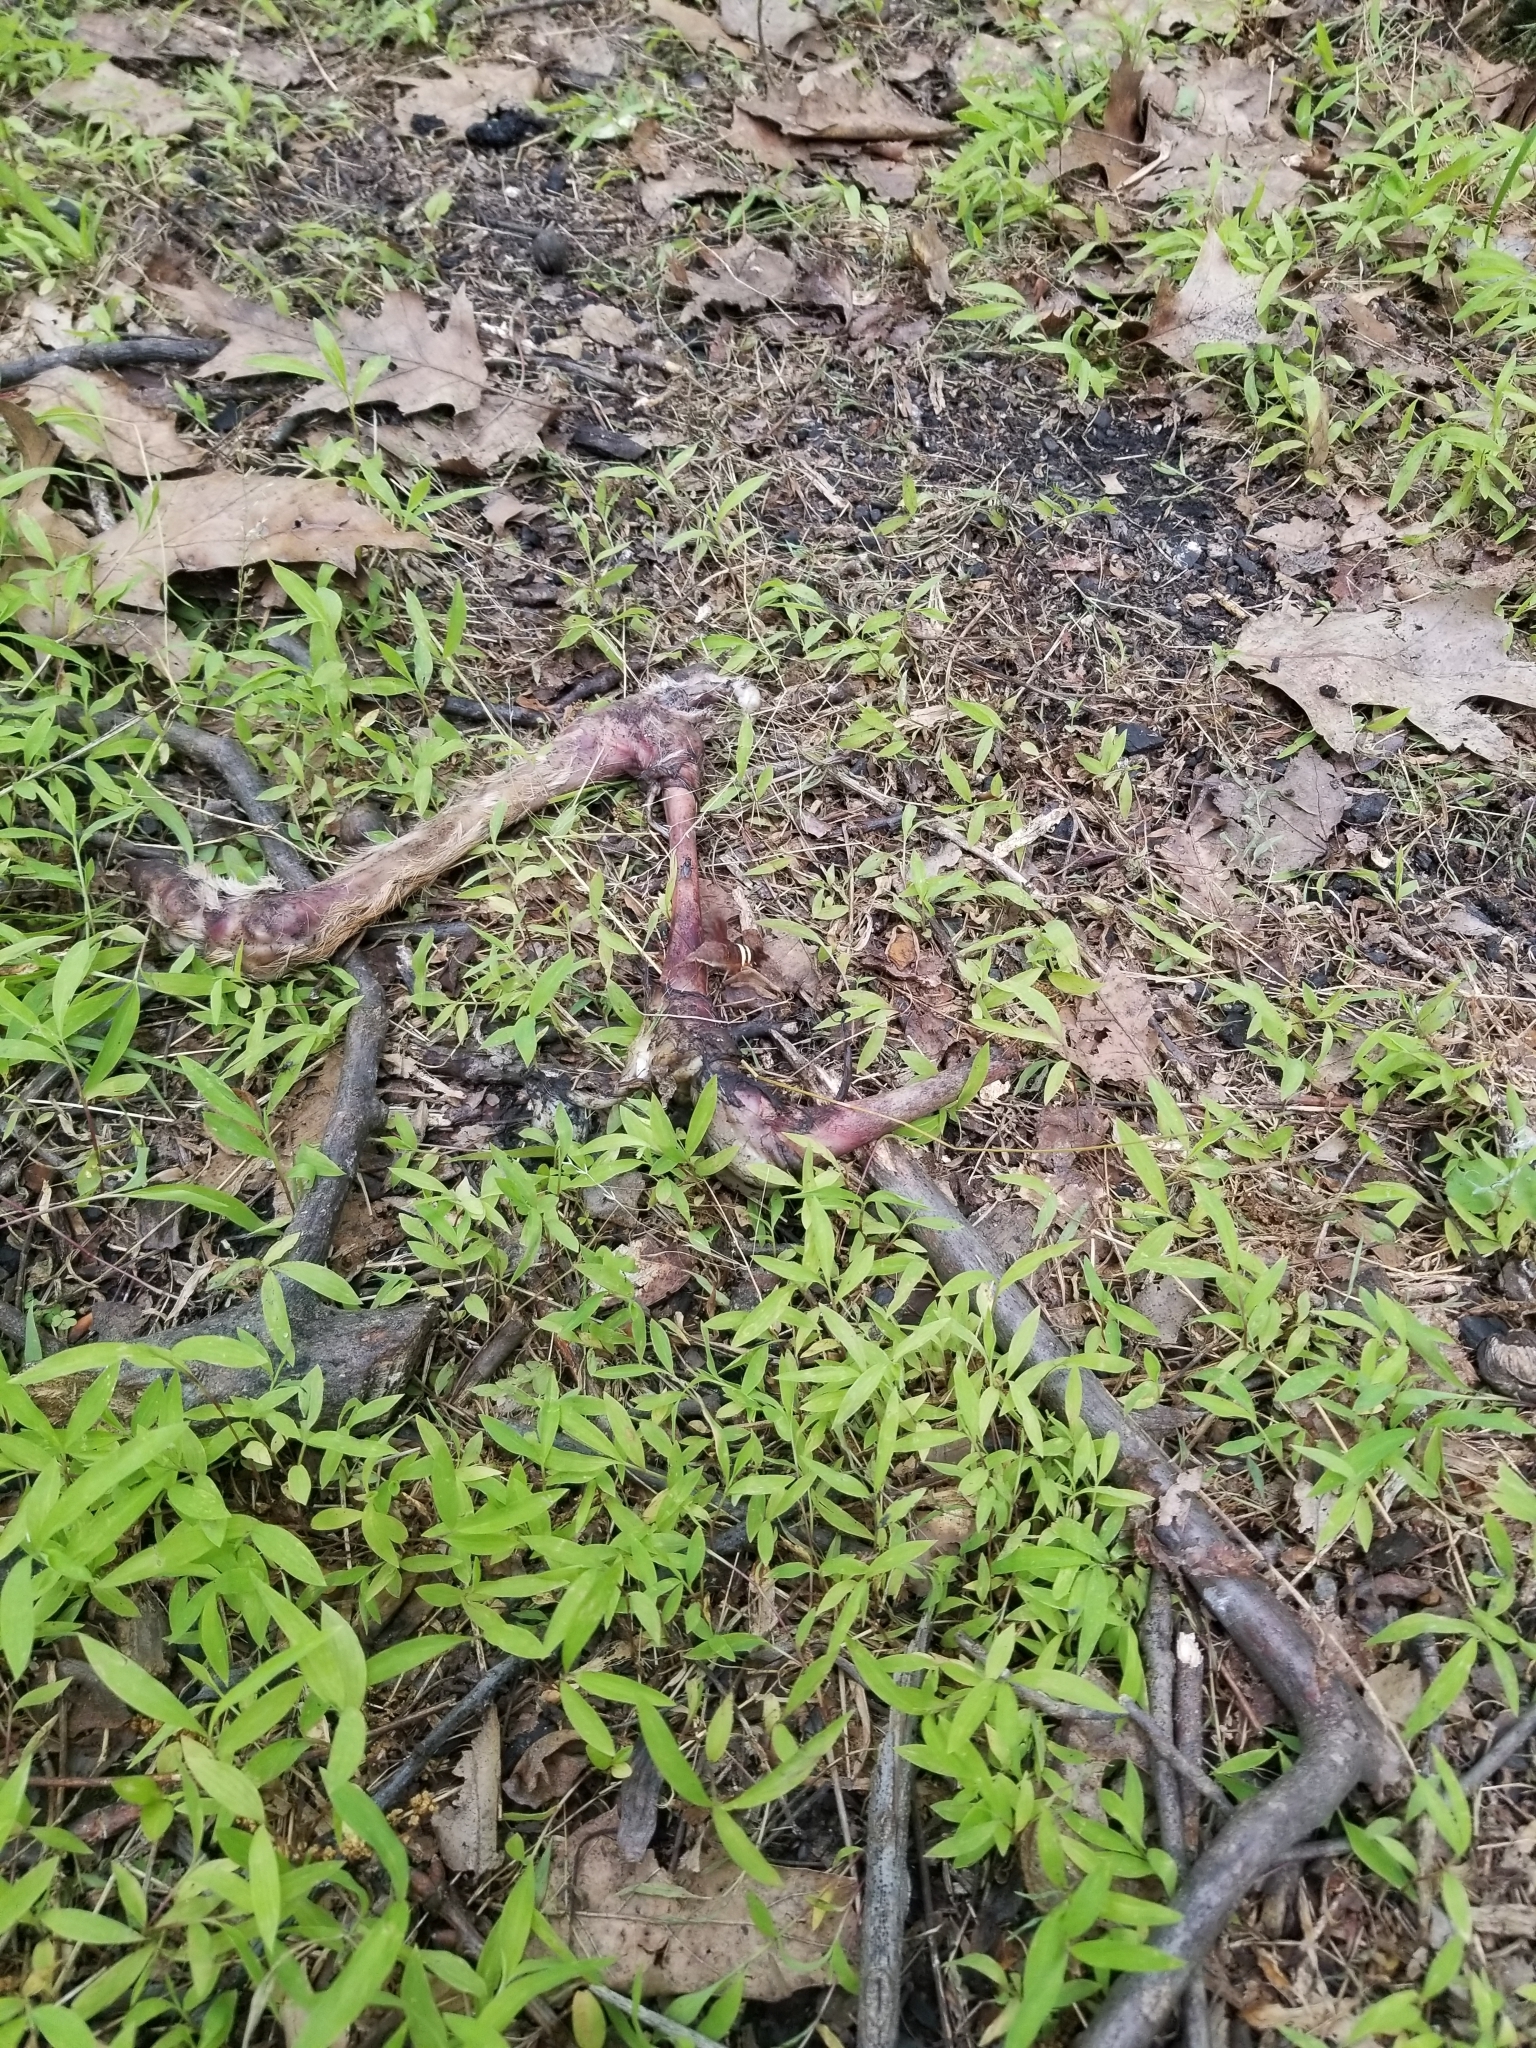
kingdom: Animalia
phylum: Chordata
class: Mammalia
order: Artiodactyla
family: Cervidae
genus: Odocoileus
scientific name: Odocoileus virginianus
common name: White-tailed deer
